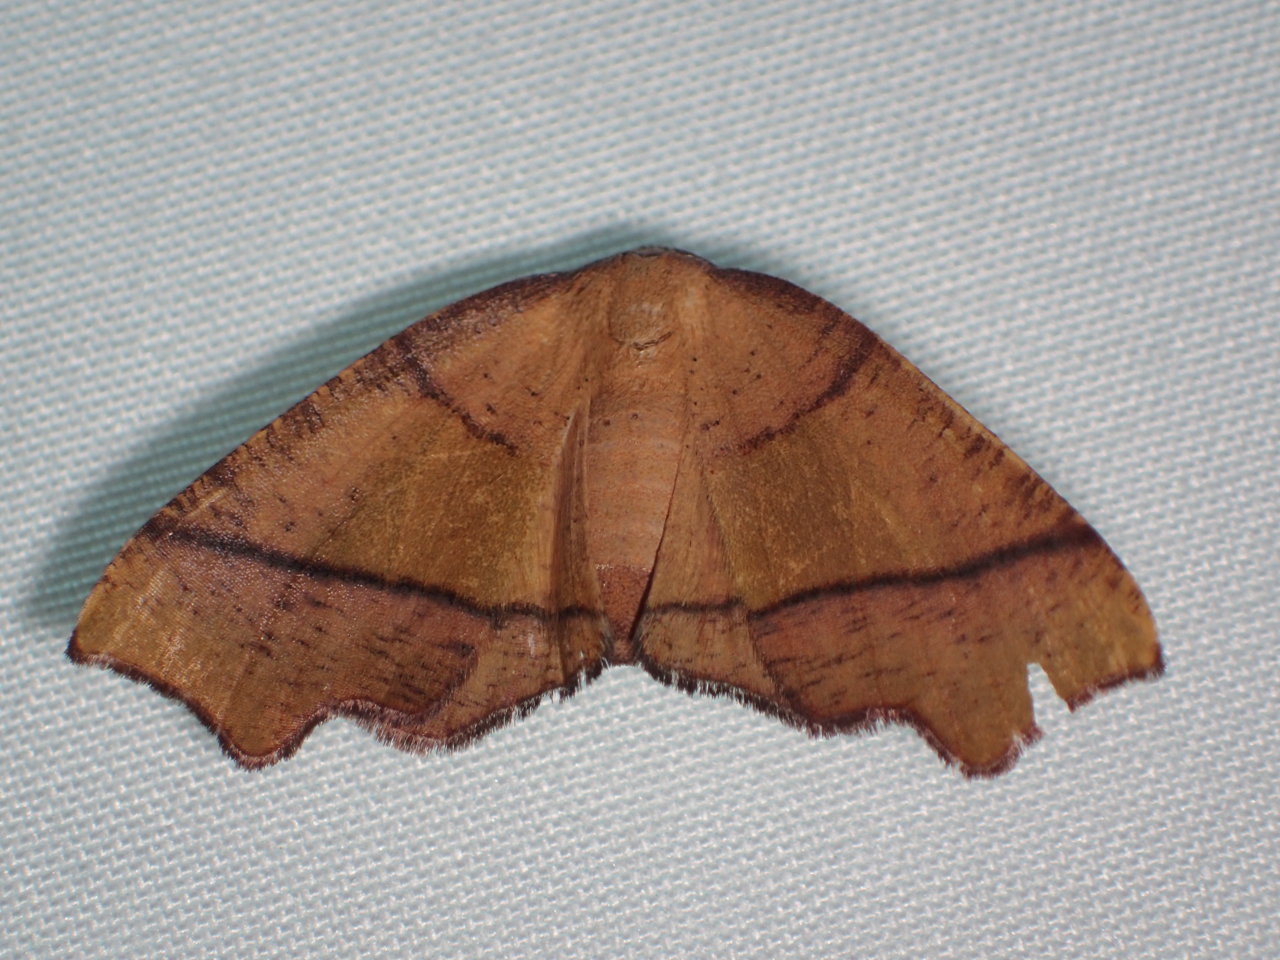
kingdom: Animalia
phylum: Arthropoda
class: Insecta
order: Lepidoptera
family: Geometridae
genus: Plagodis
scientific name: Plagodis phlogosaria
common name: Straight-lined plagodis
